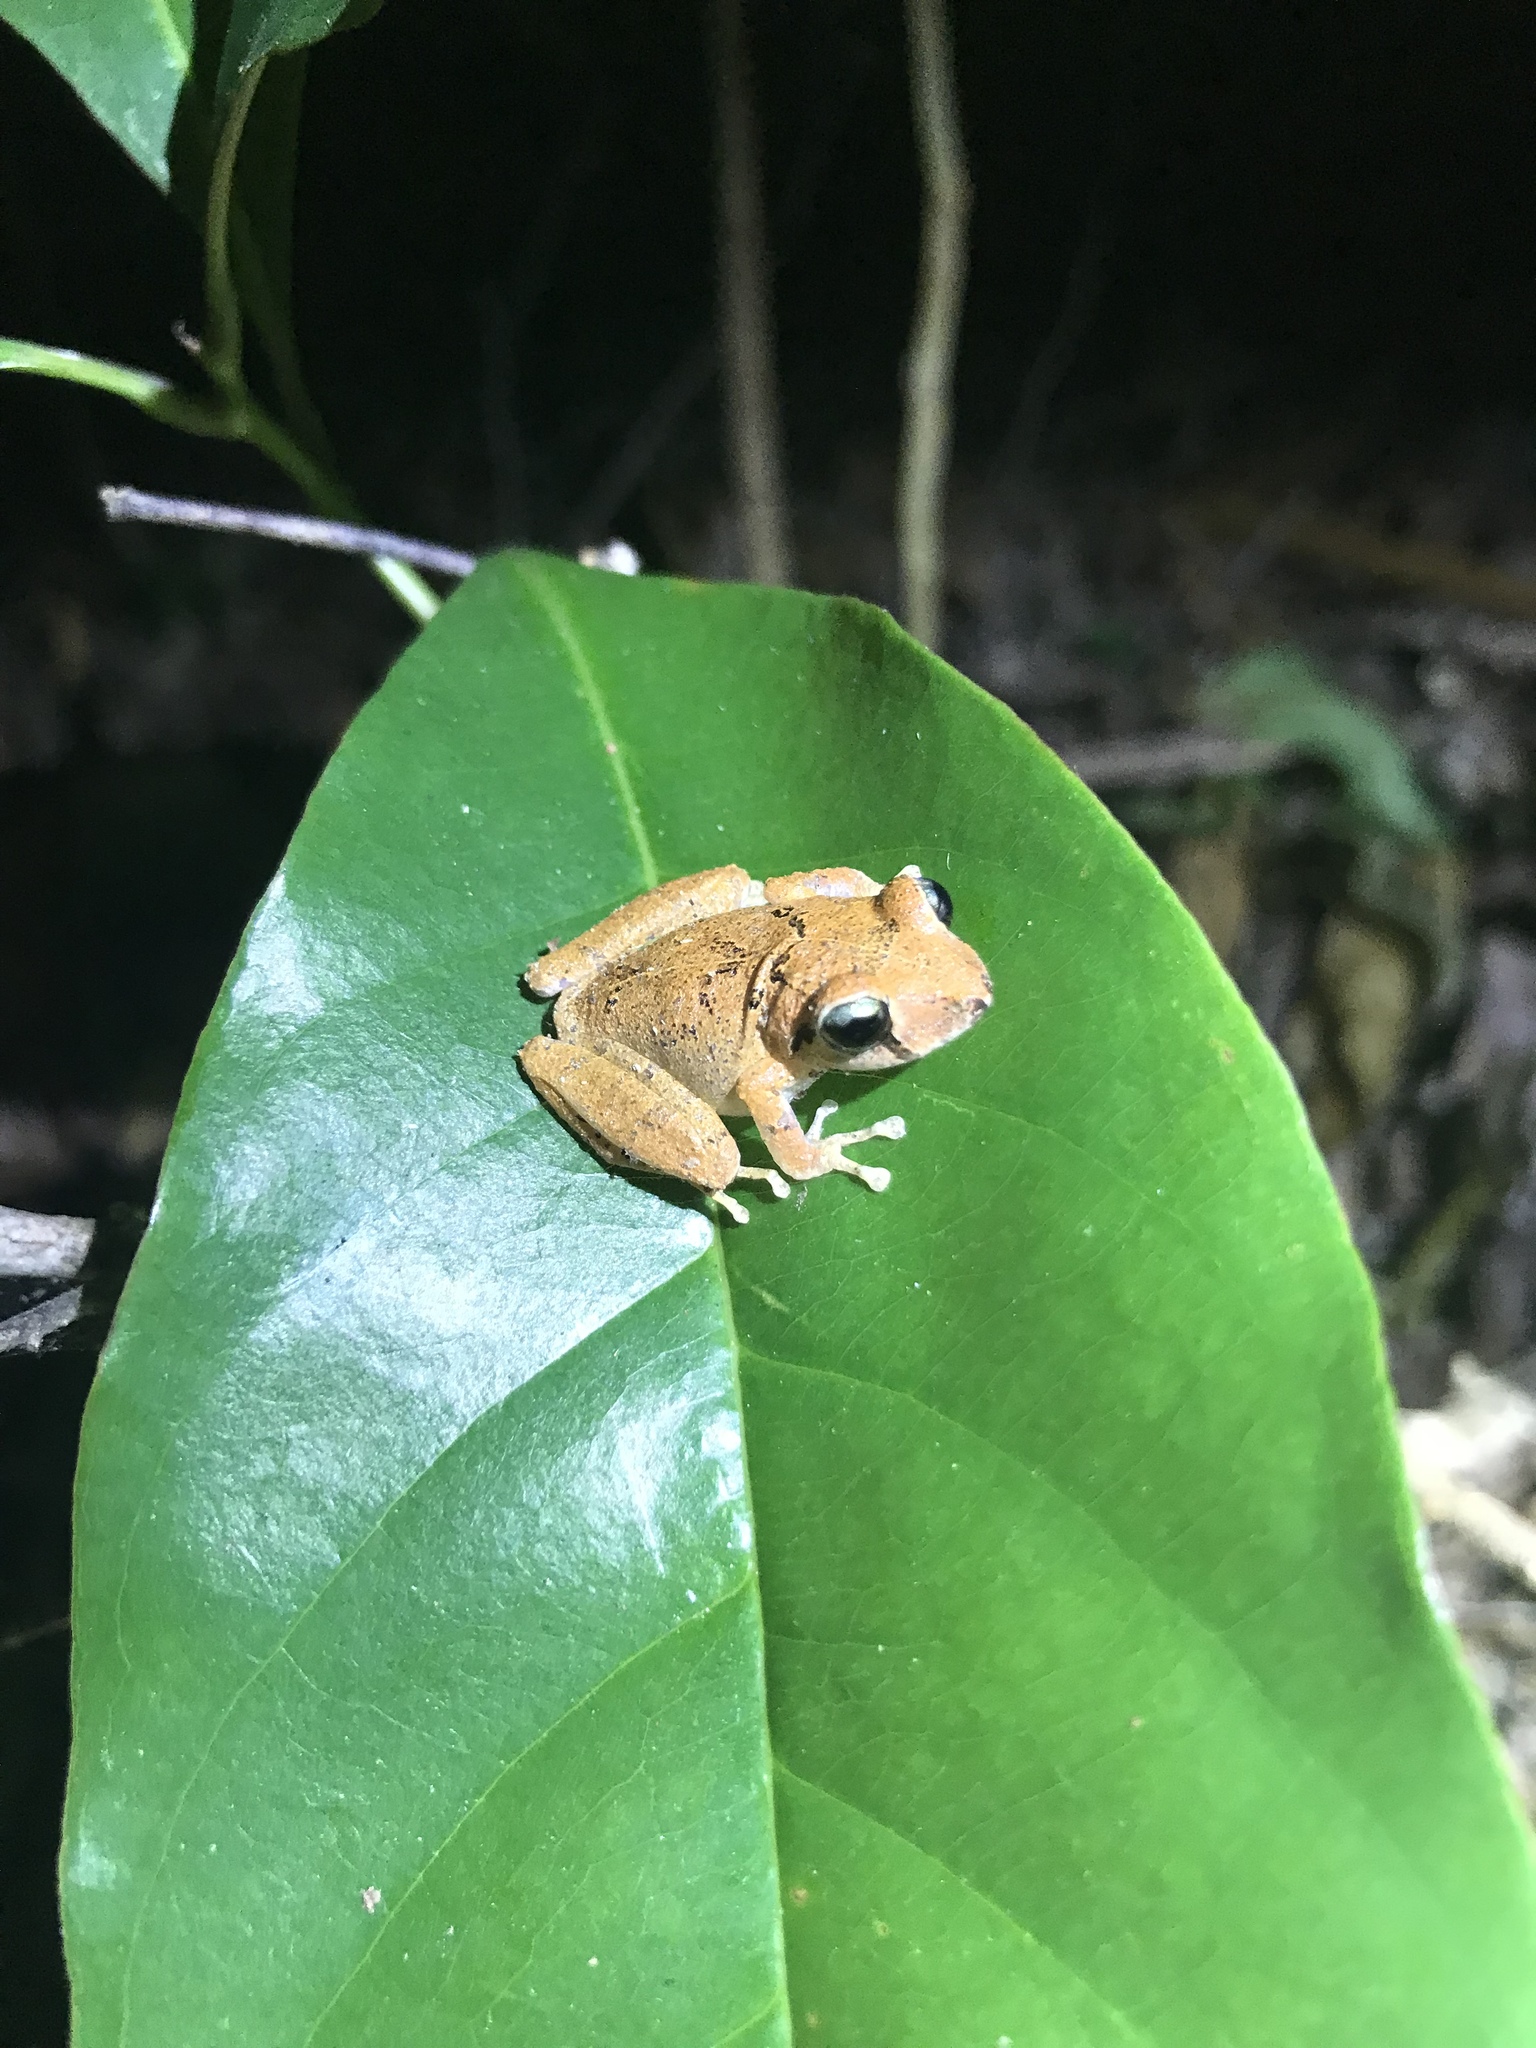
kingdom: Animalia
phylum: Chordata
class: Amphibia
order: Anura
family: Craugastoridae
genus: Pristimantis
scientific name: Pristimantis taeniatus
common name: Banded robber frog
